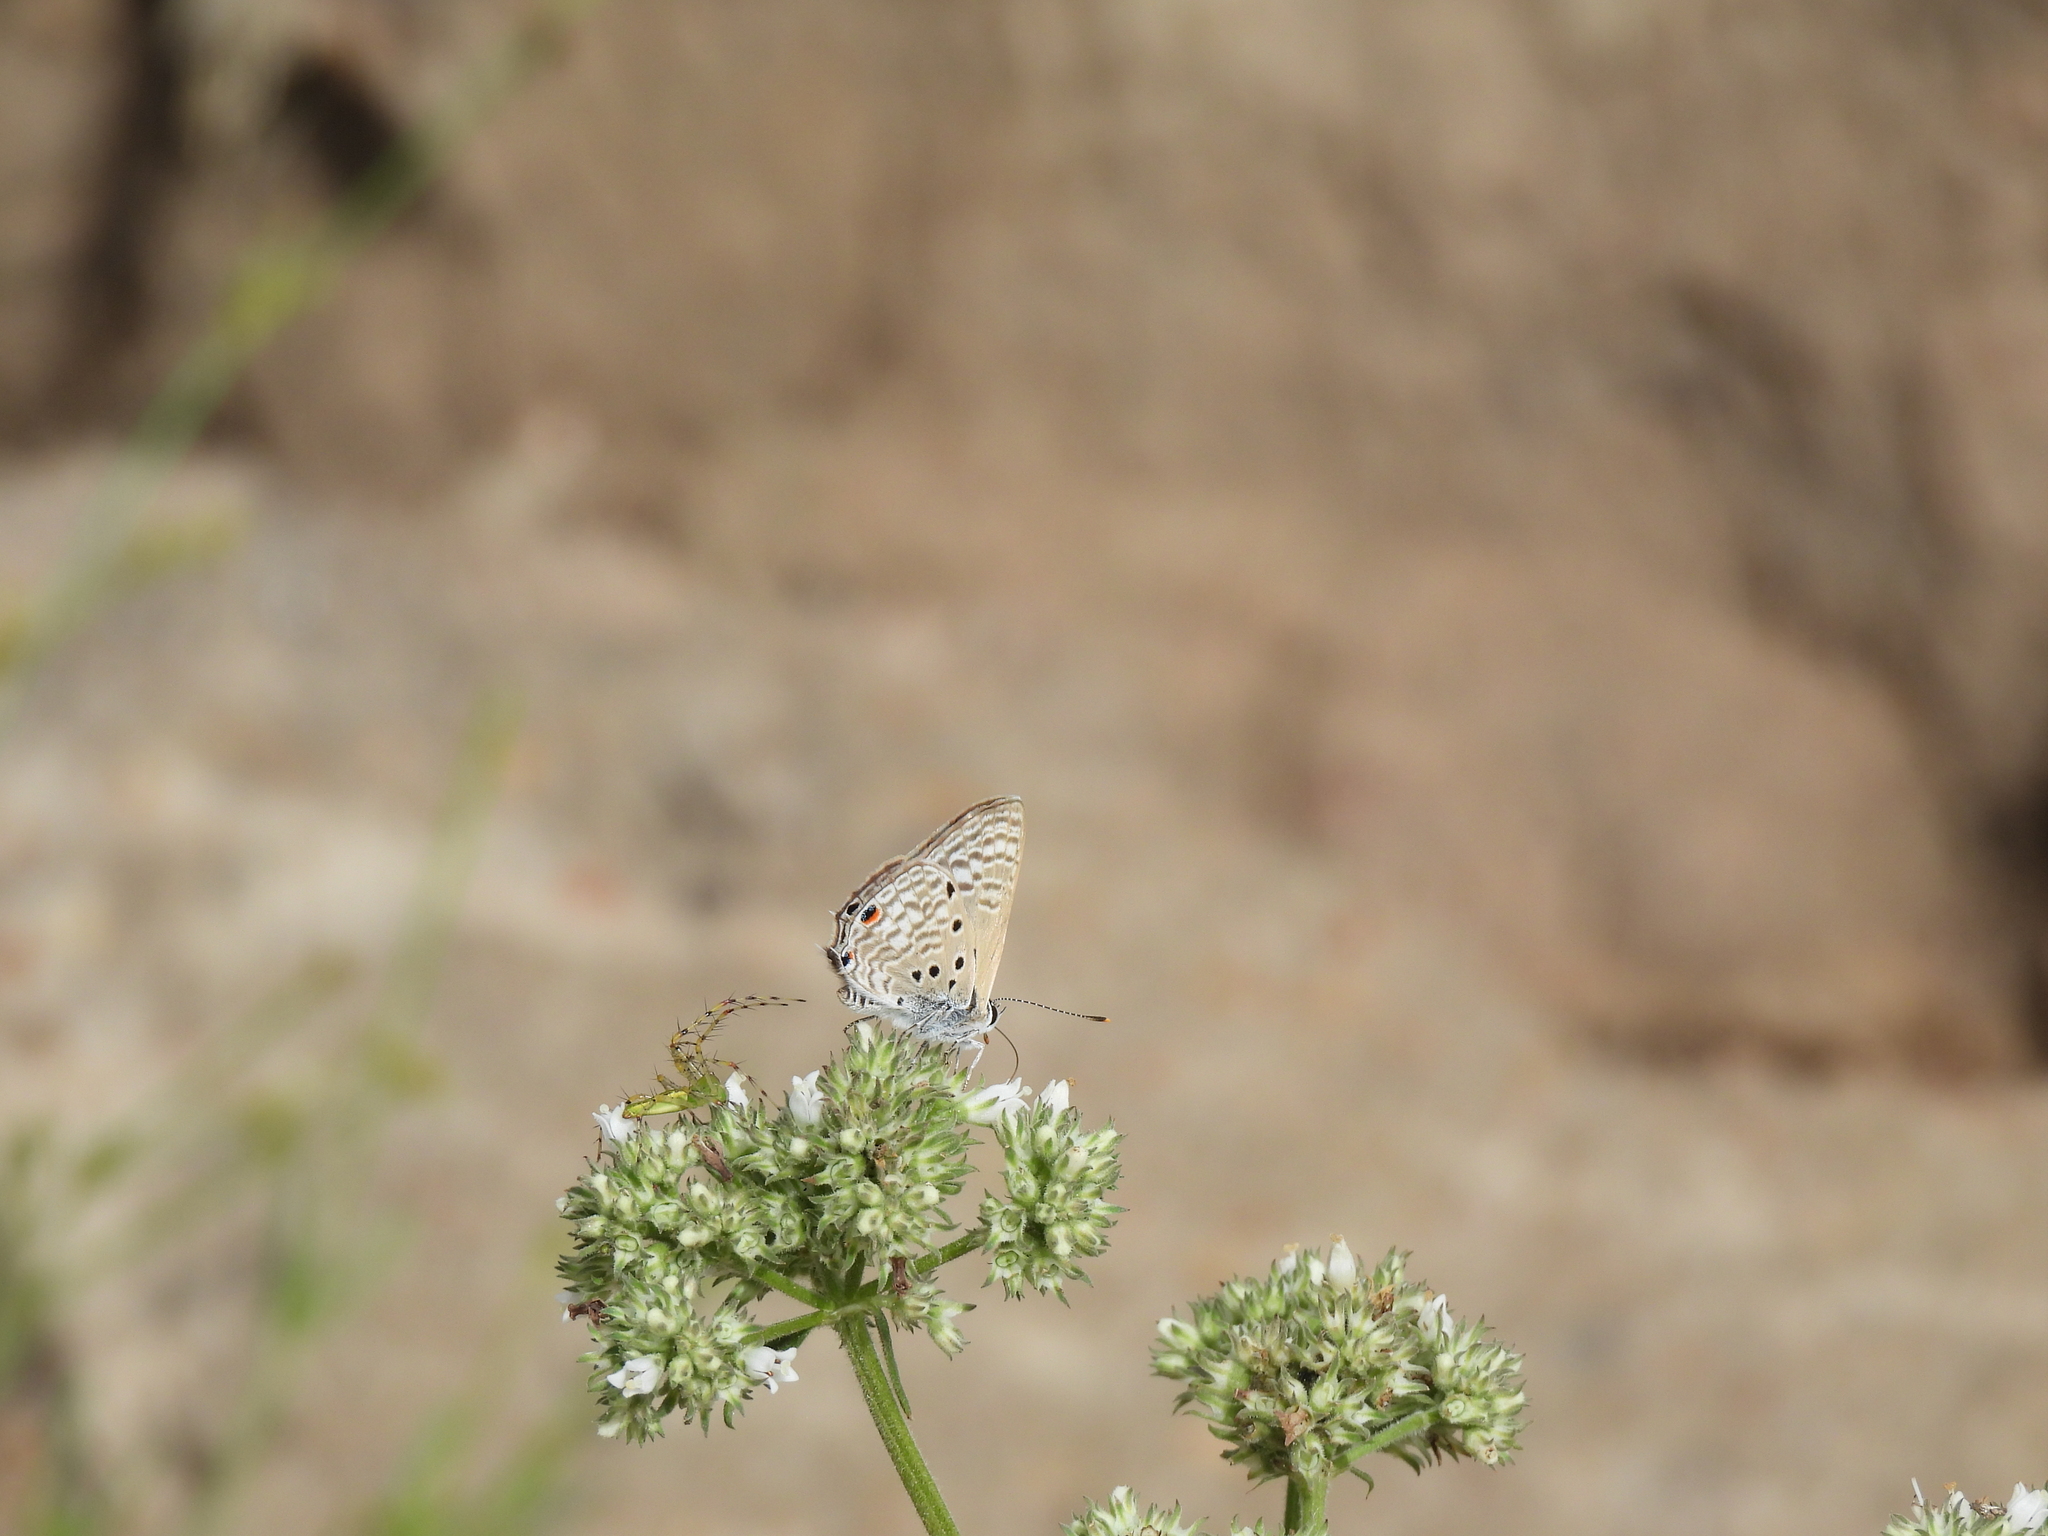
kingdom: Animalia
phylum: Arthropoda
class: Insecta
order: Lepidoptera
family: Lycaenidae
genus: Anthene
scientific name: Anthene amarah
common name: Black-striped hairtail
